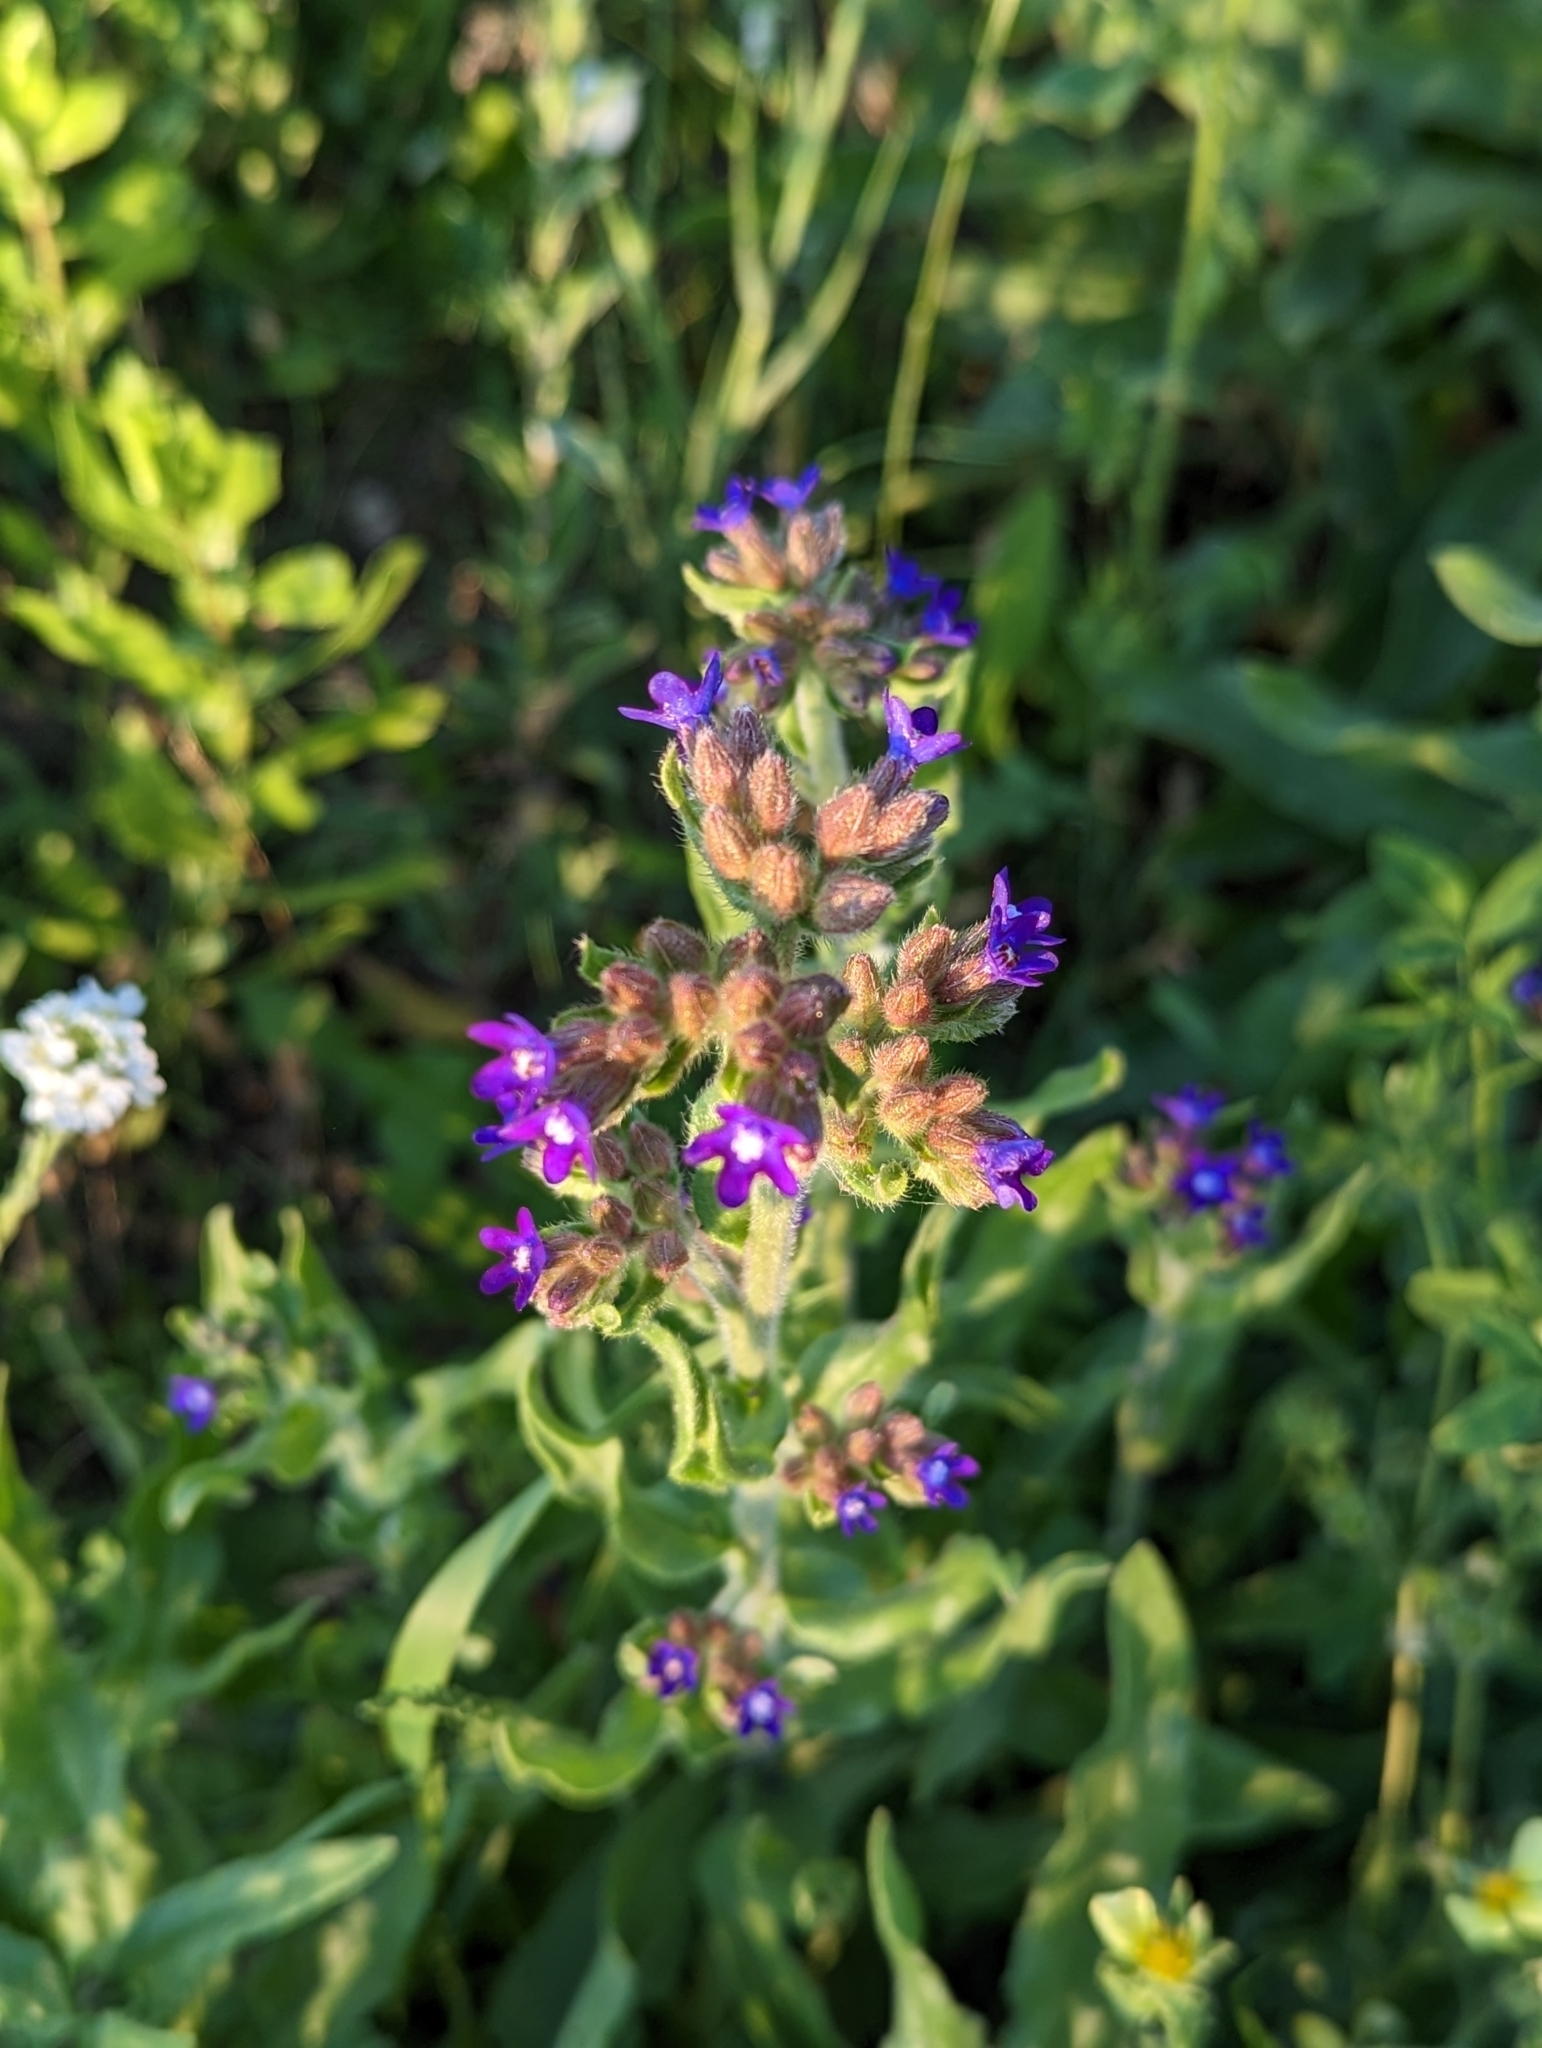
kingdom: Plantae
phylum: Tracheophyta
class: Magnoliopsida
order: Boraginales
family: Boraginaceae
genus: Anchusa
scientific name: Anchusa officinalis
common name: Alkanet
